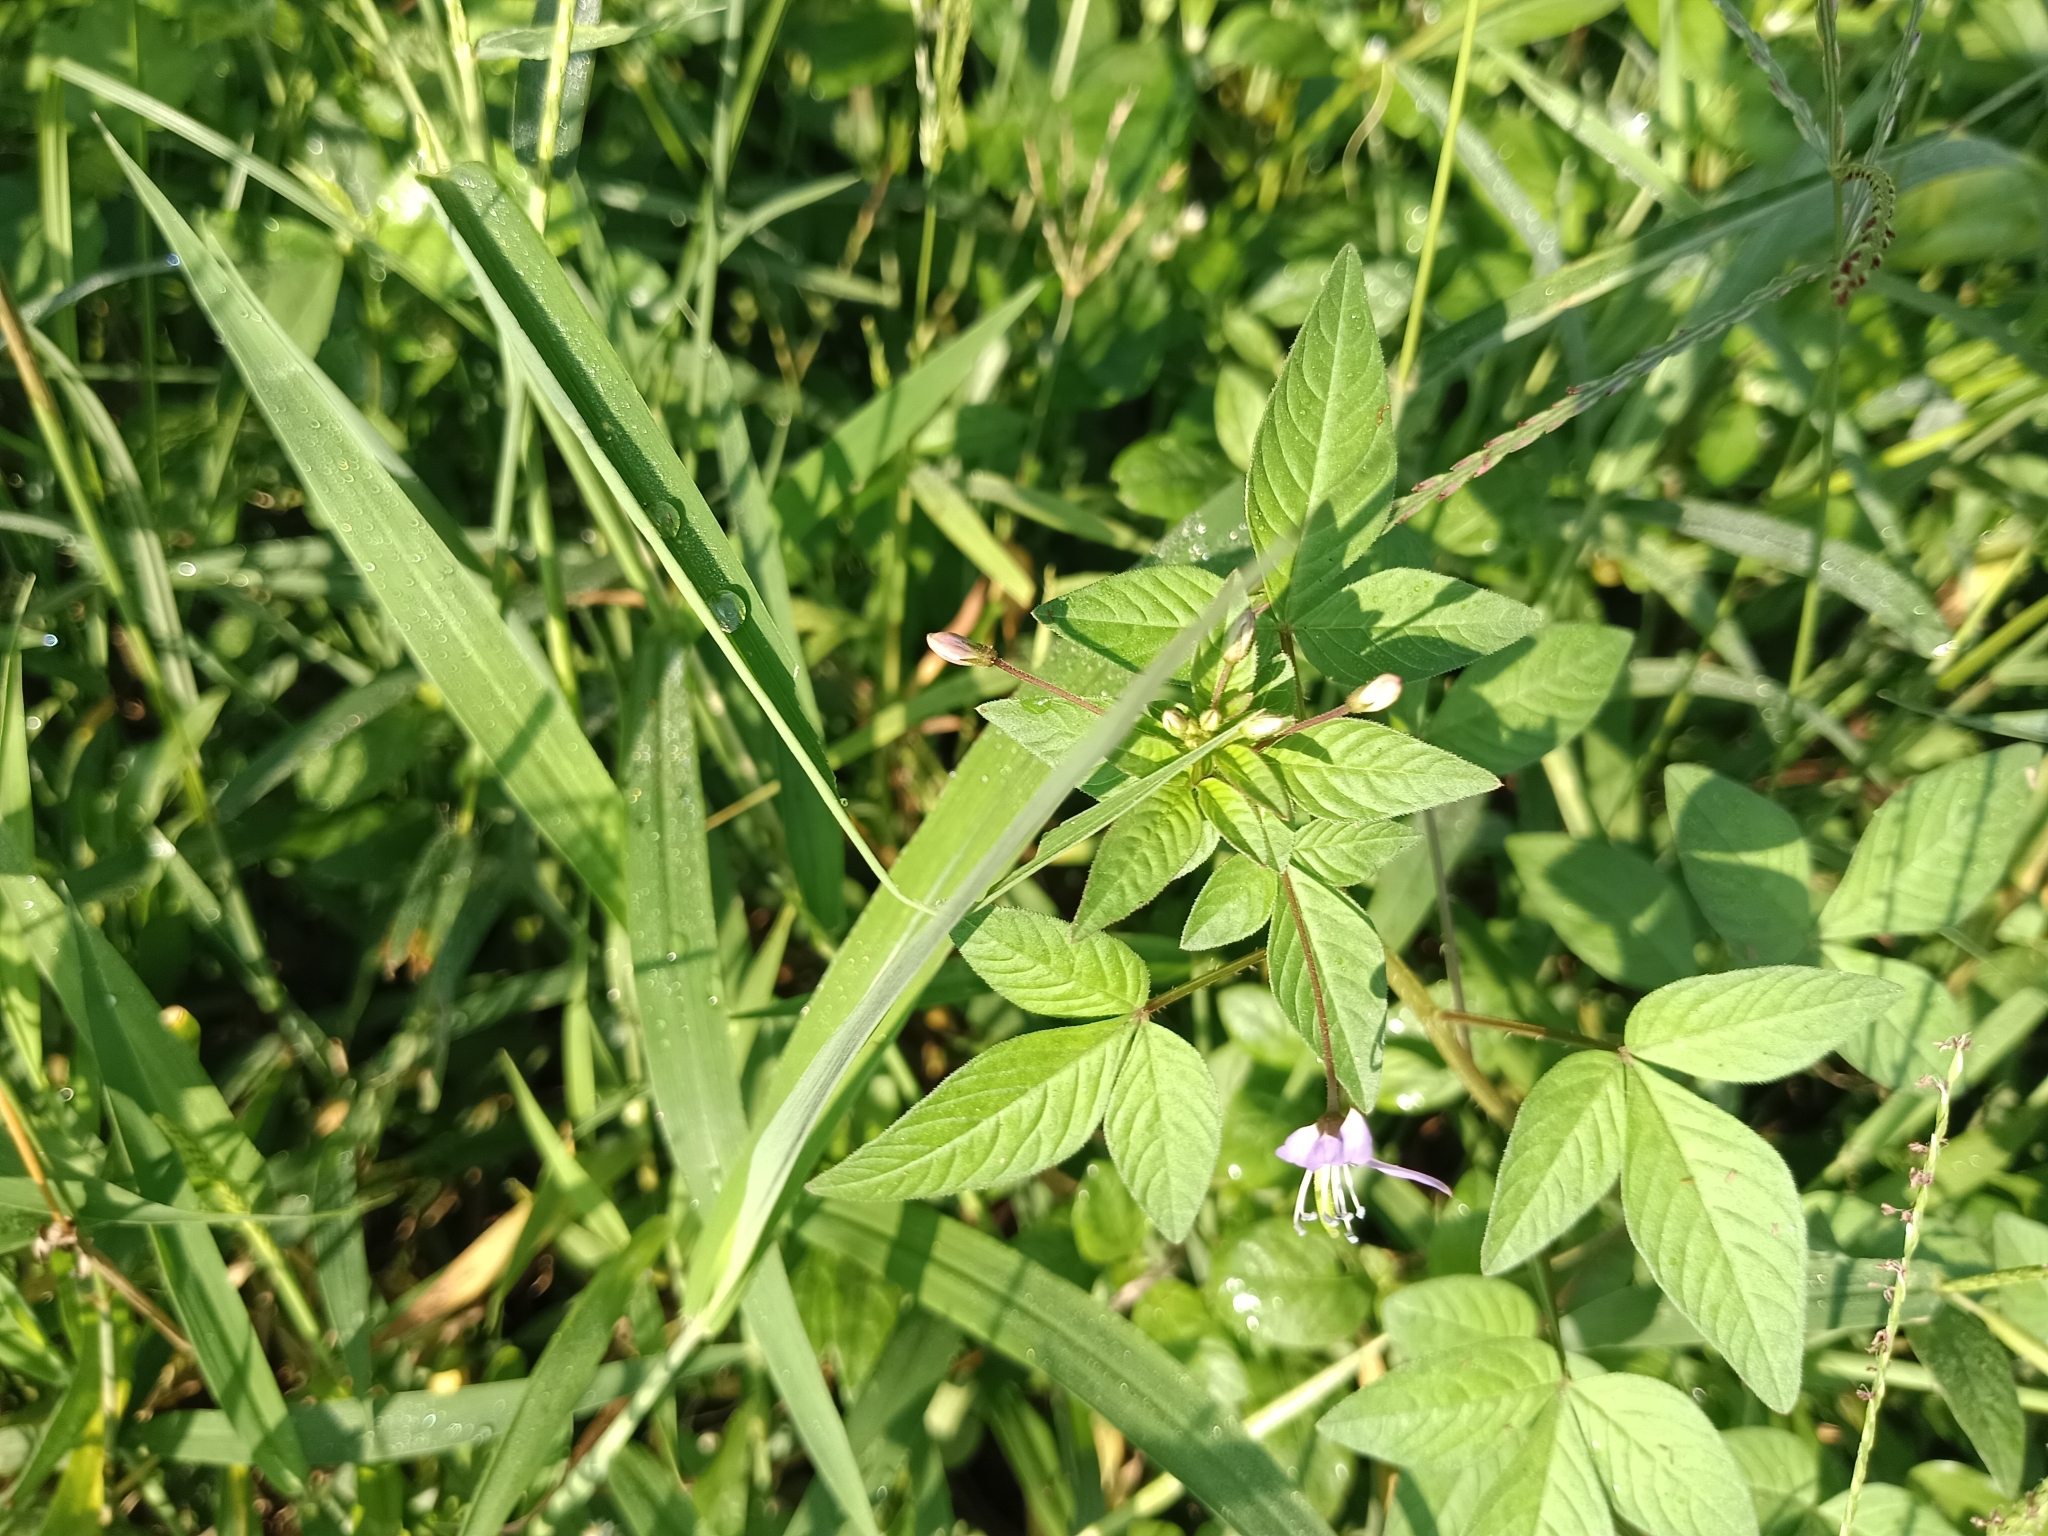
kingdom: Plantae
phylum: Tracheophyta
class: Magnoliopsida
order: Brassicales
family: Cleomaceae
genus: Sieruela
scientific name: Sieruela rutidosperma
